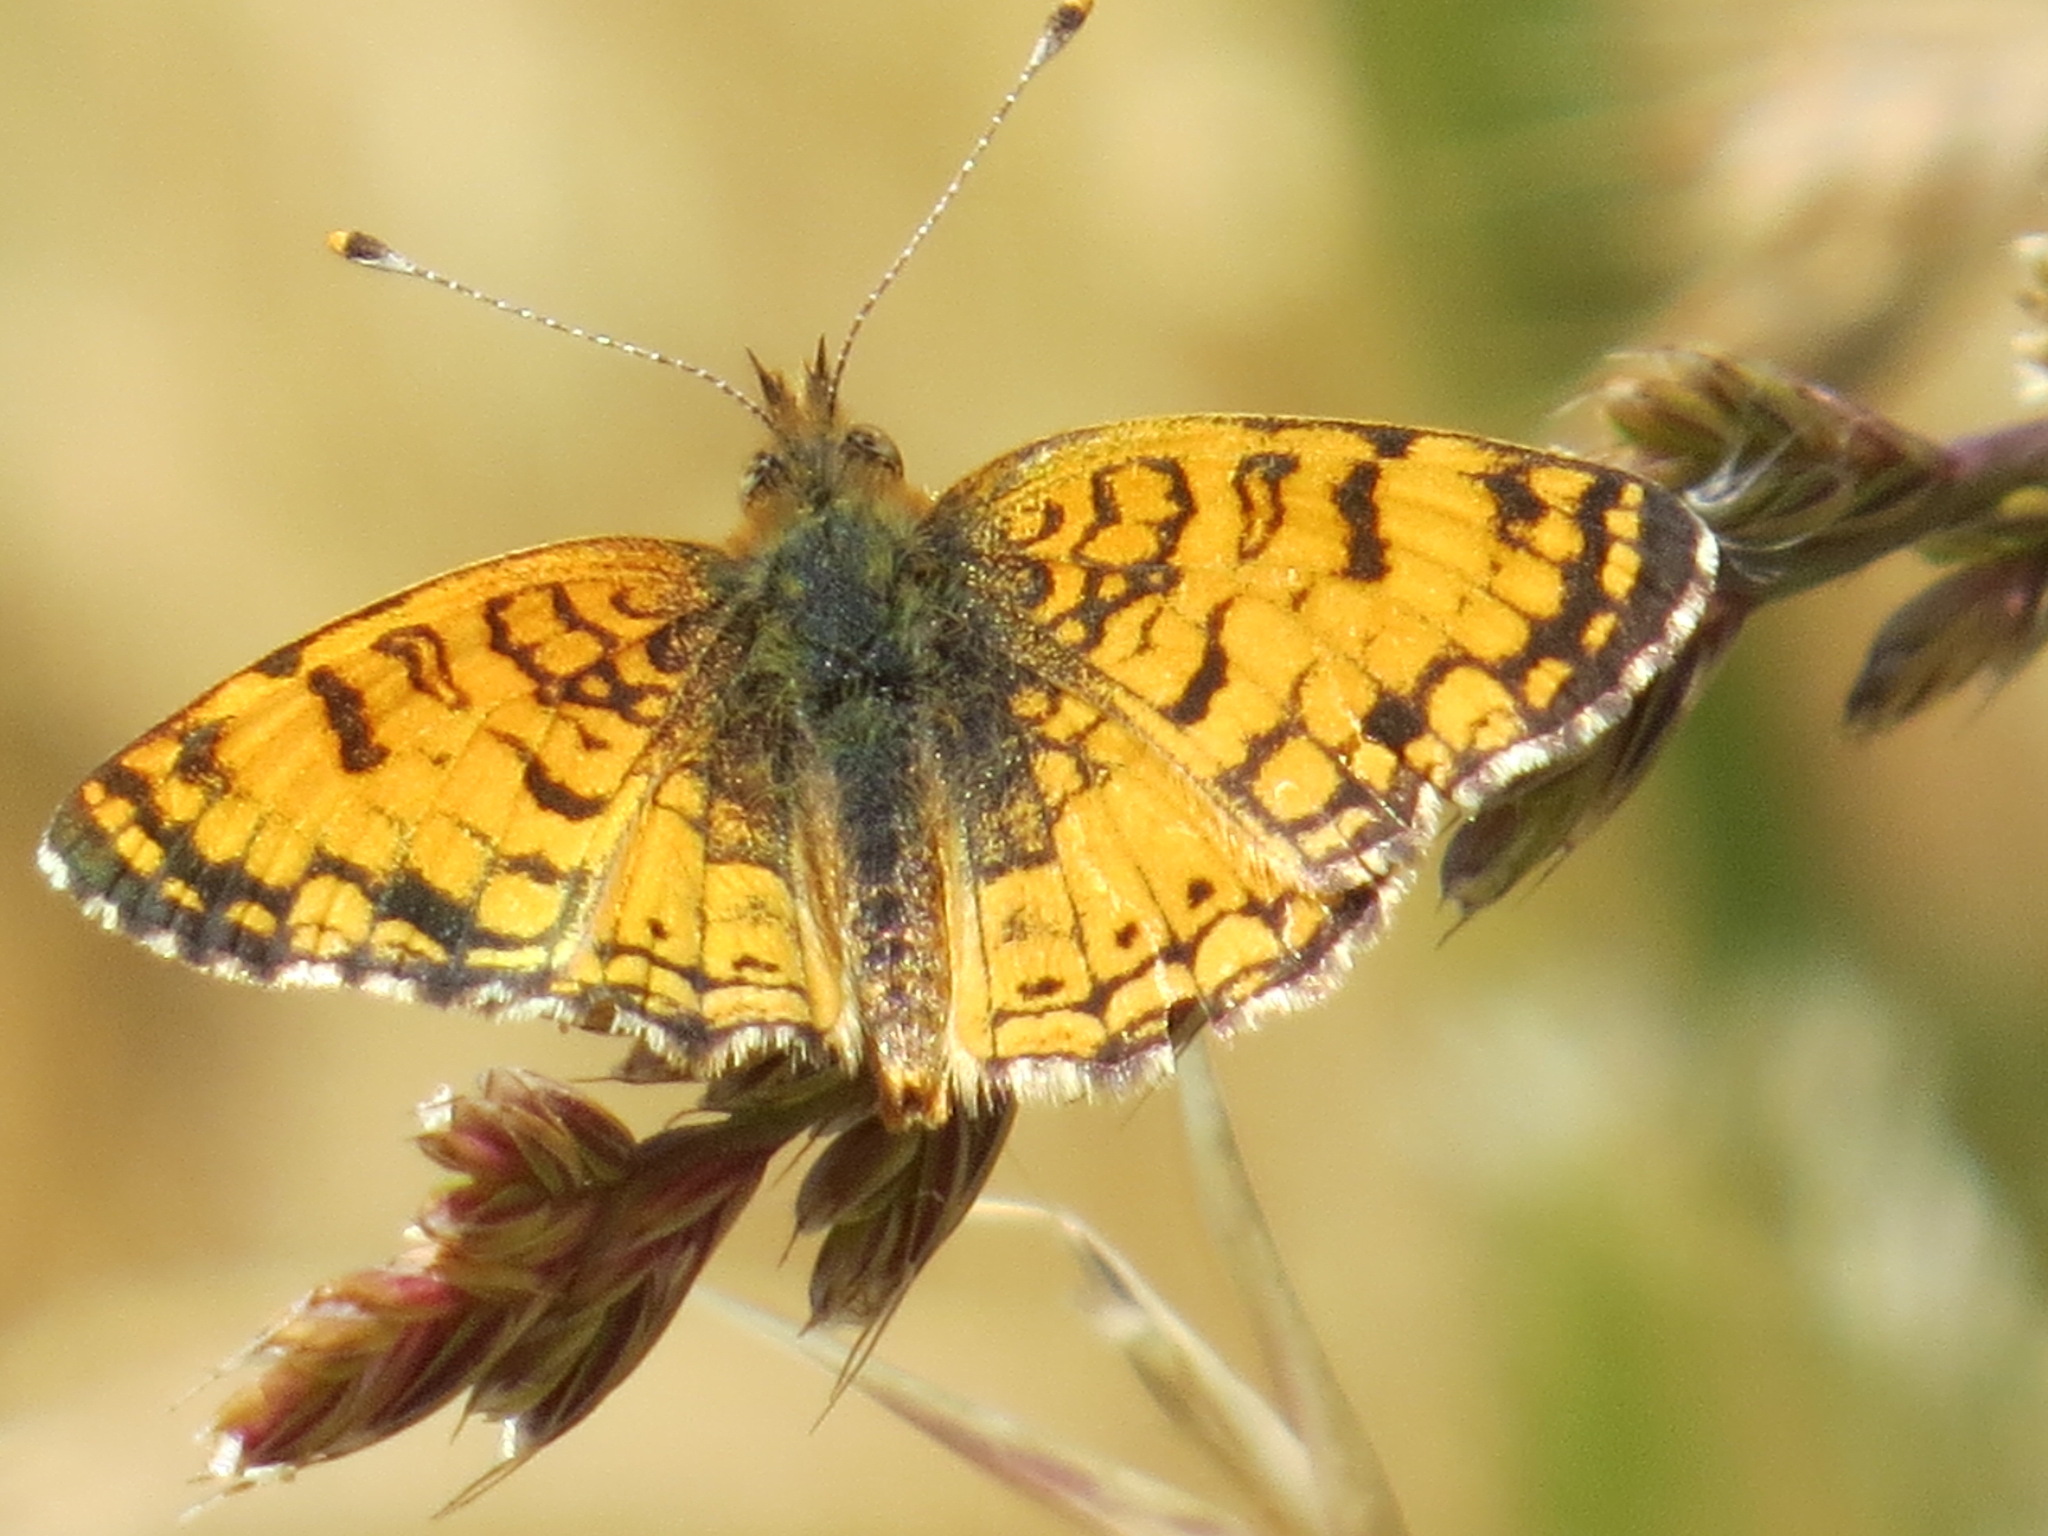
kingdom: Animalia
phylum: Arthropoda
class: Insecta
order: Lepidoptera
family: Nymphalidae
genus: Eresia
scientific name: Eresia aveyrona
